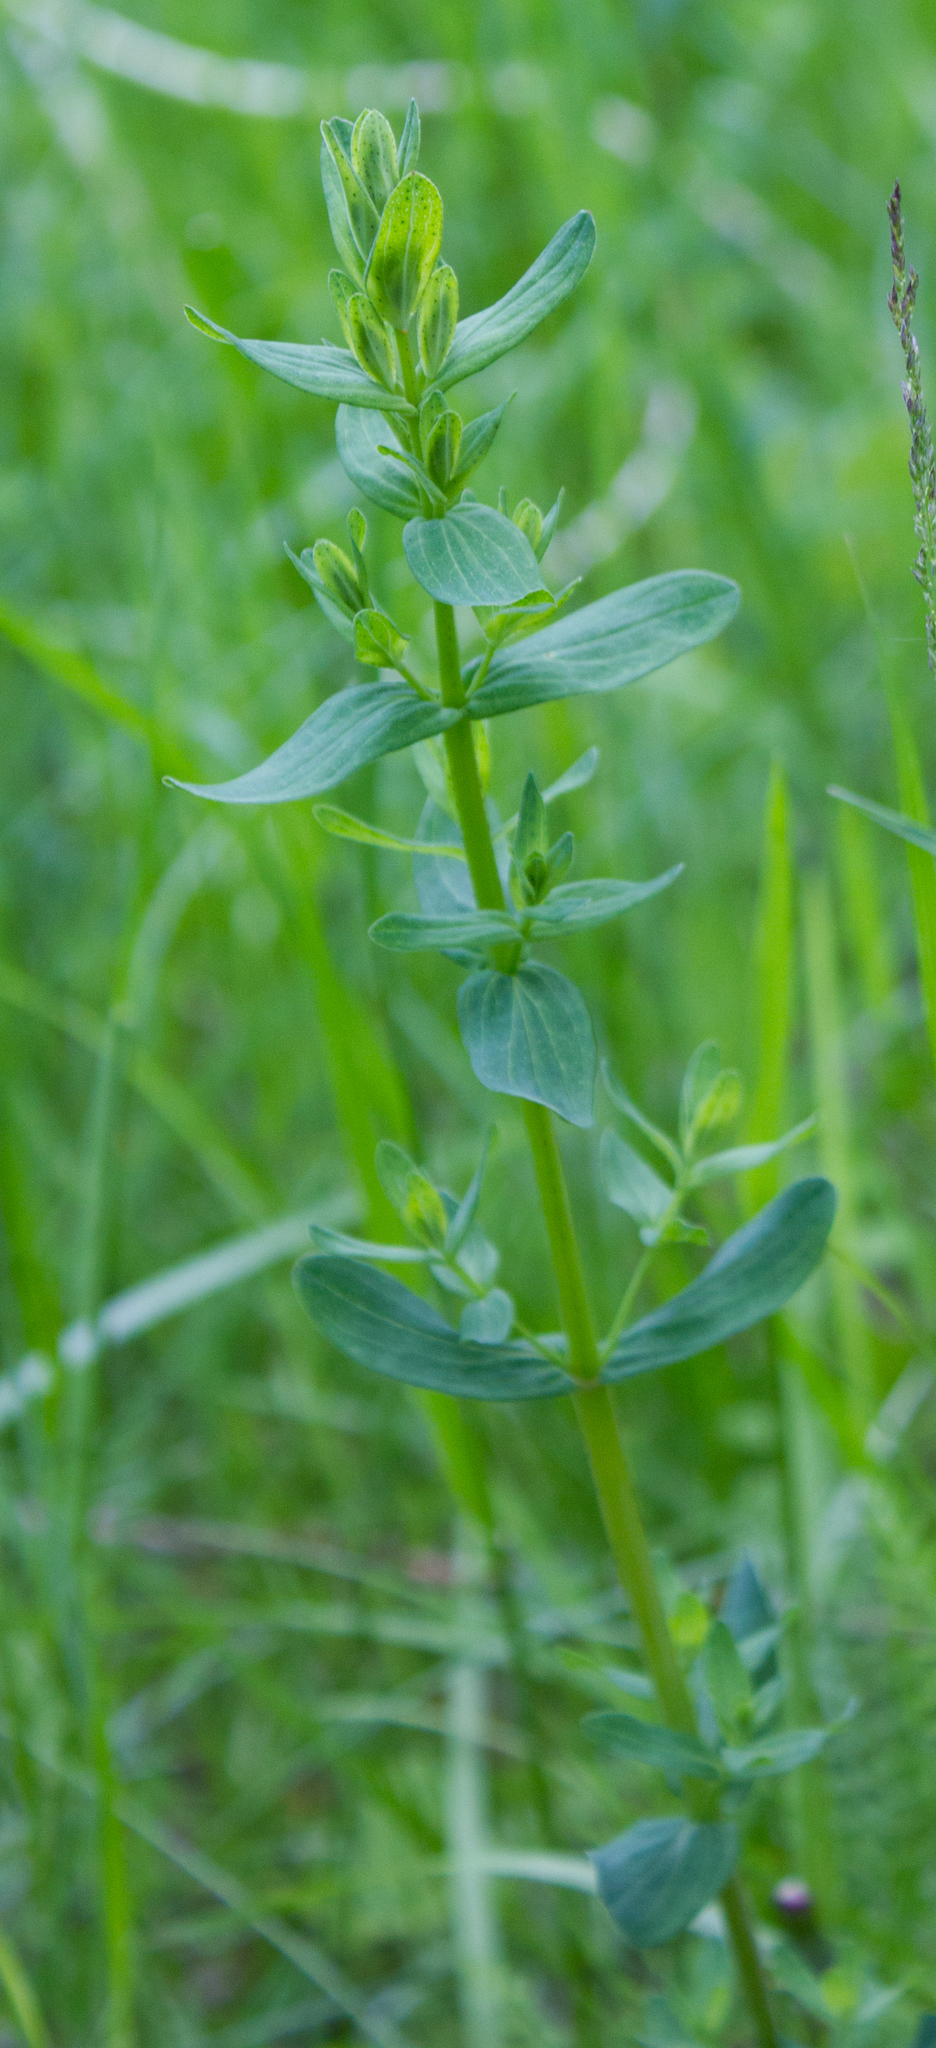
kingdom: Plantae
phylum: Tracheophyta
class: Magnoliopsida
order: Malpighiales
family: Hypericaceae
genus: Hypericum
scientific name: Hypericum perforatum
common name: Common st. johnswort
